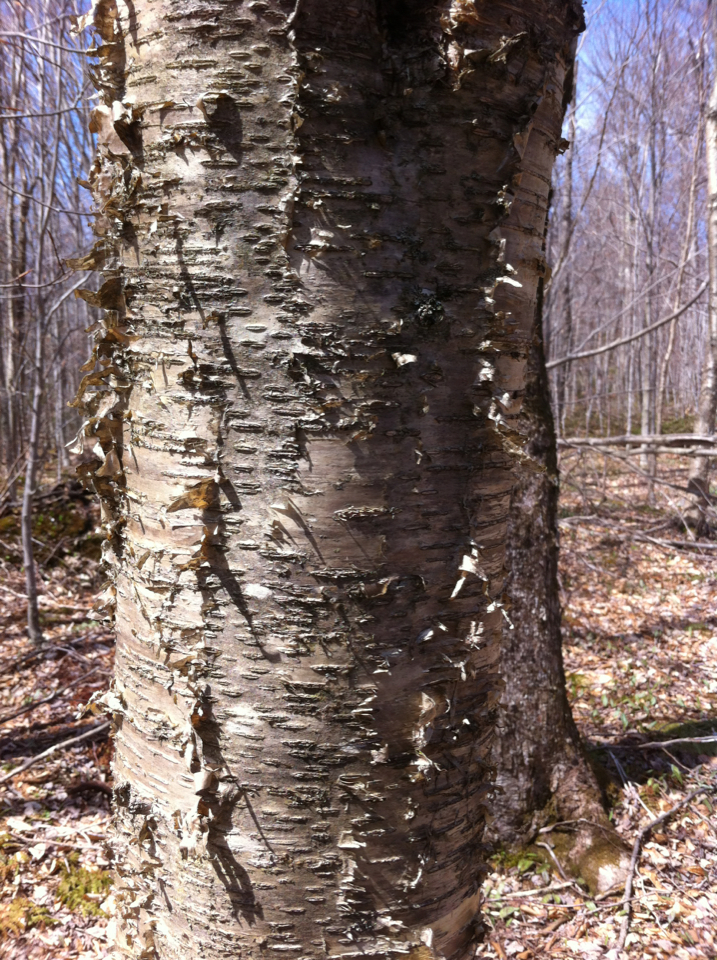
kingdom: Plantae
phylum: Tracheophyta
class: Magnoliopsida
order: Fagales
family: Betulaceae
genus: Betula
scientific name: Betula alleghaniensis
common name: Yellow birch
